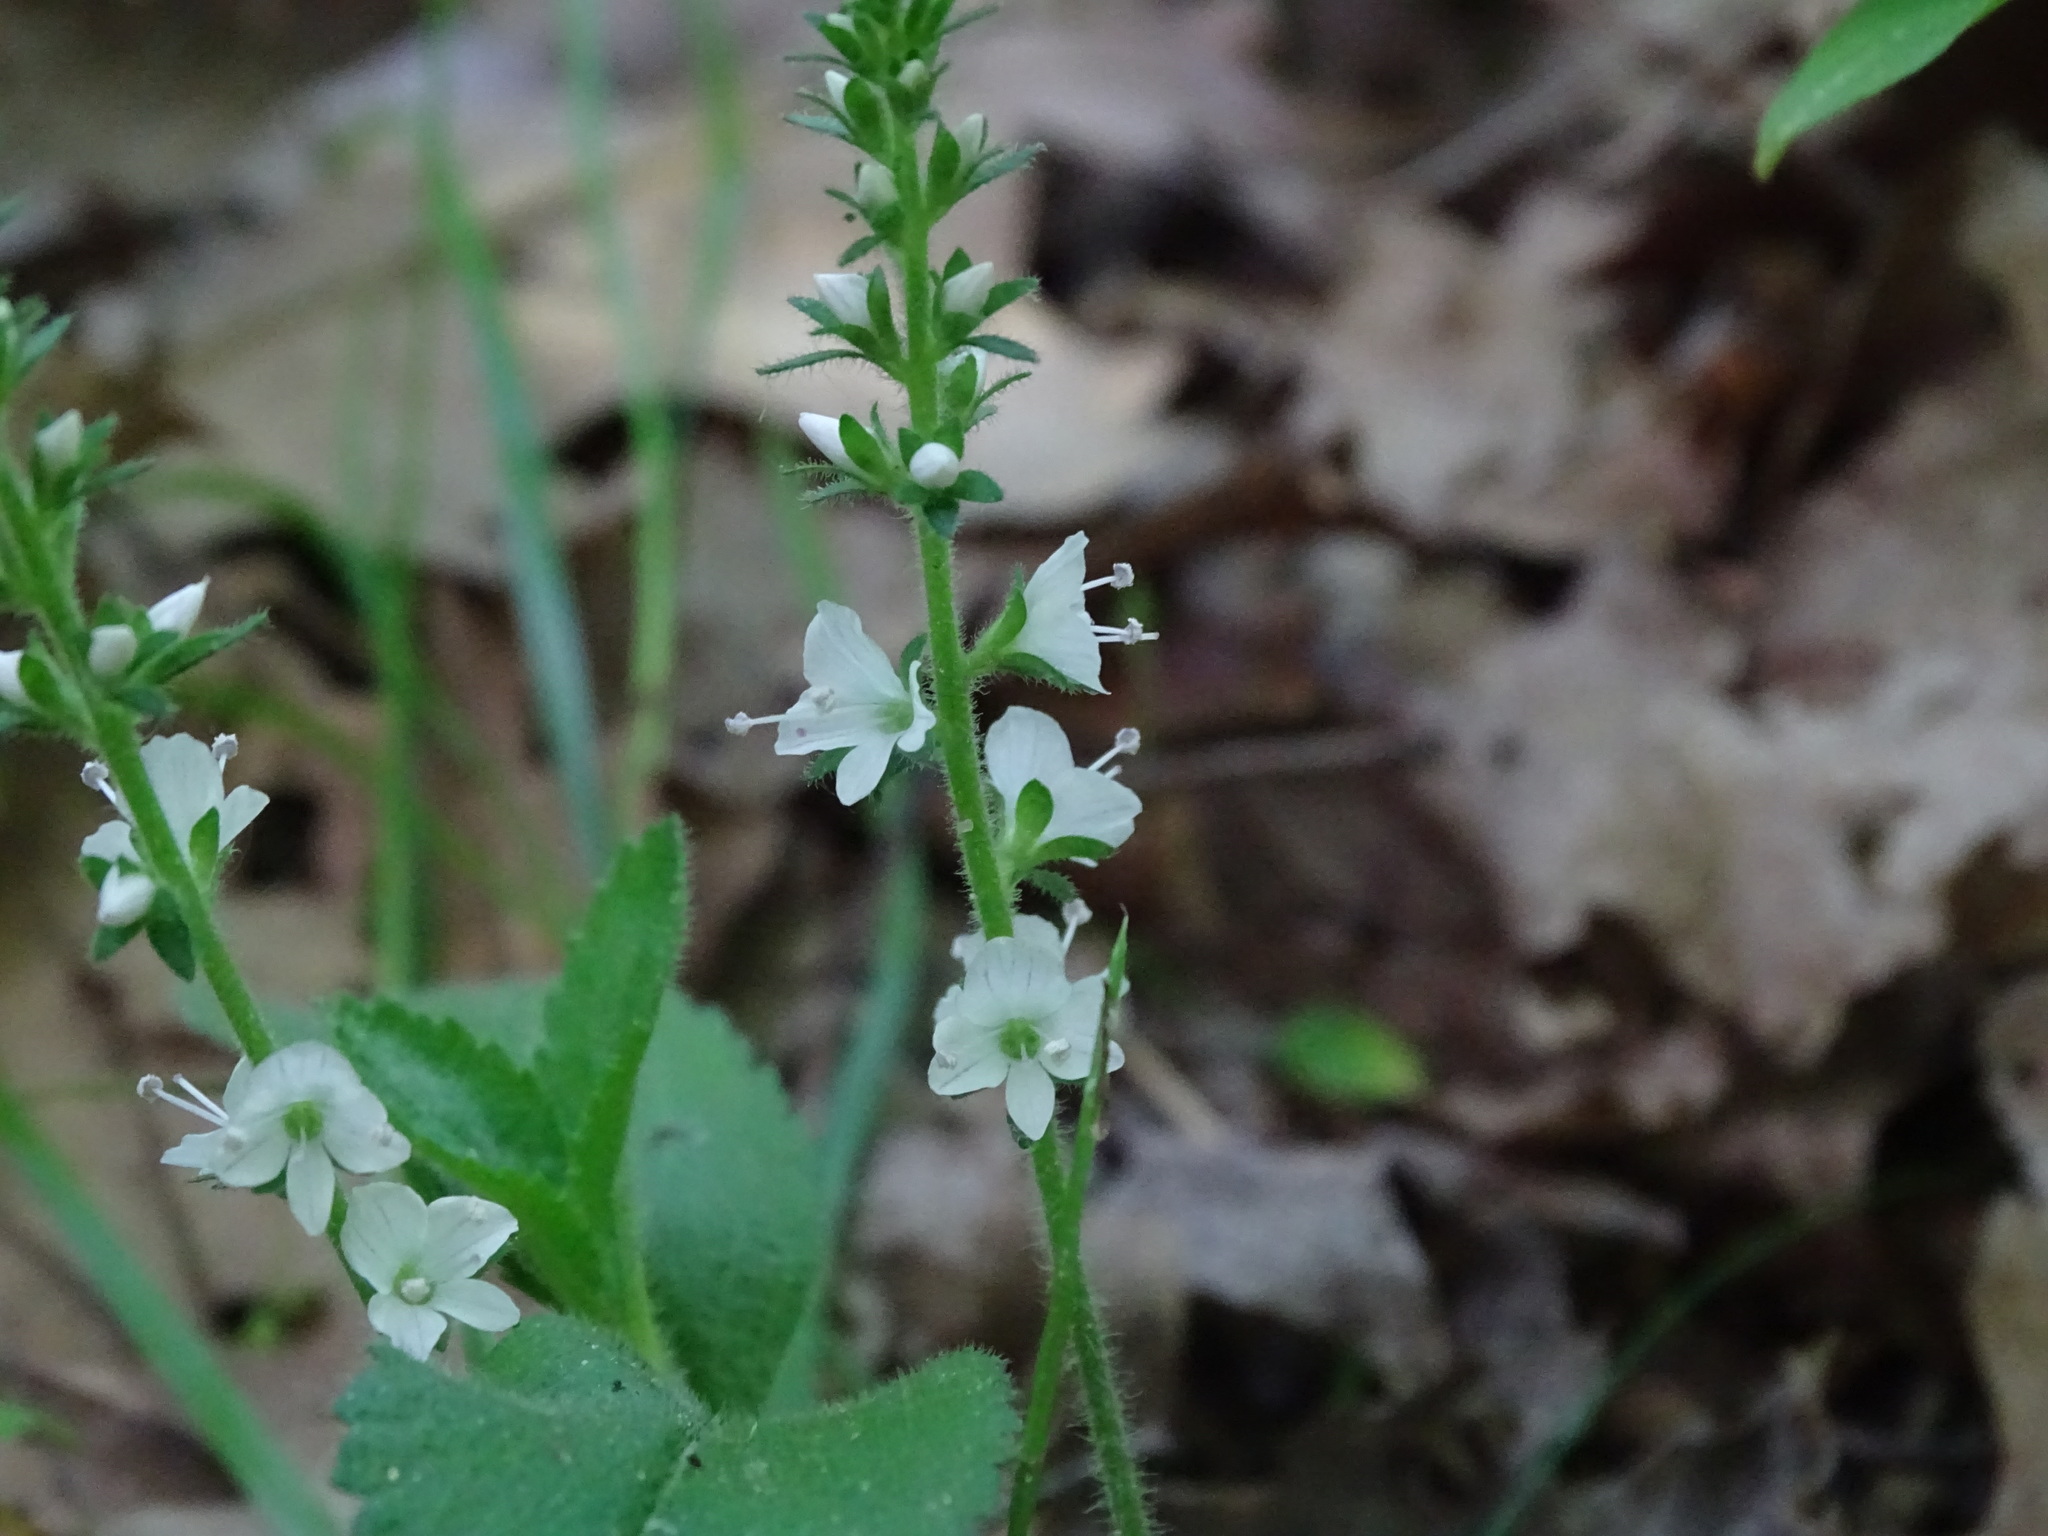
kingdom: Plantae
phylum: Tracheophyta
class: Magnoliopsida
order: Lamiales
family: Plantaginaceae
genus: Veronica
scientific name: Veronica officinalis
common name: Common speedwell
